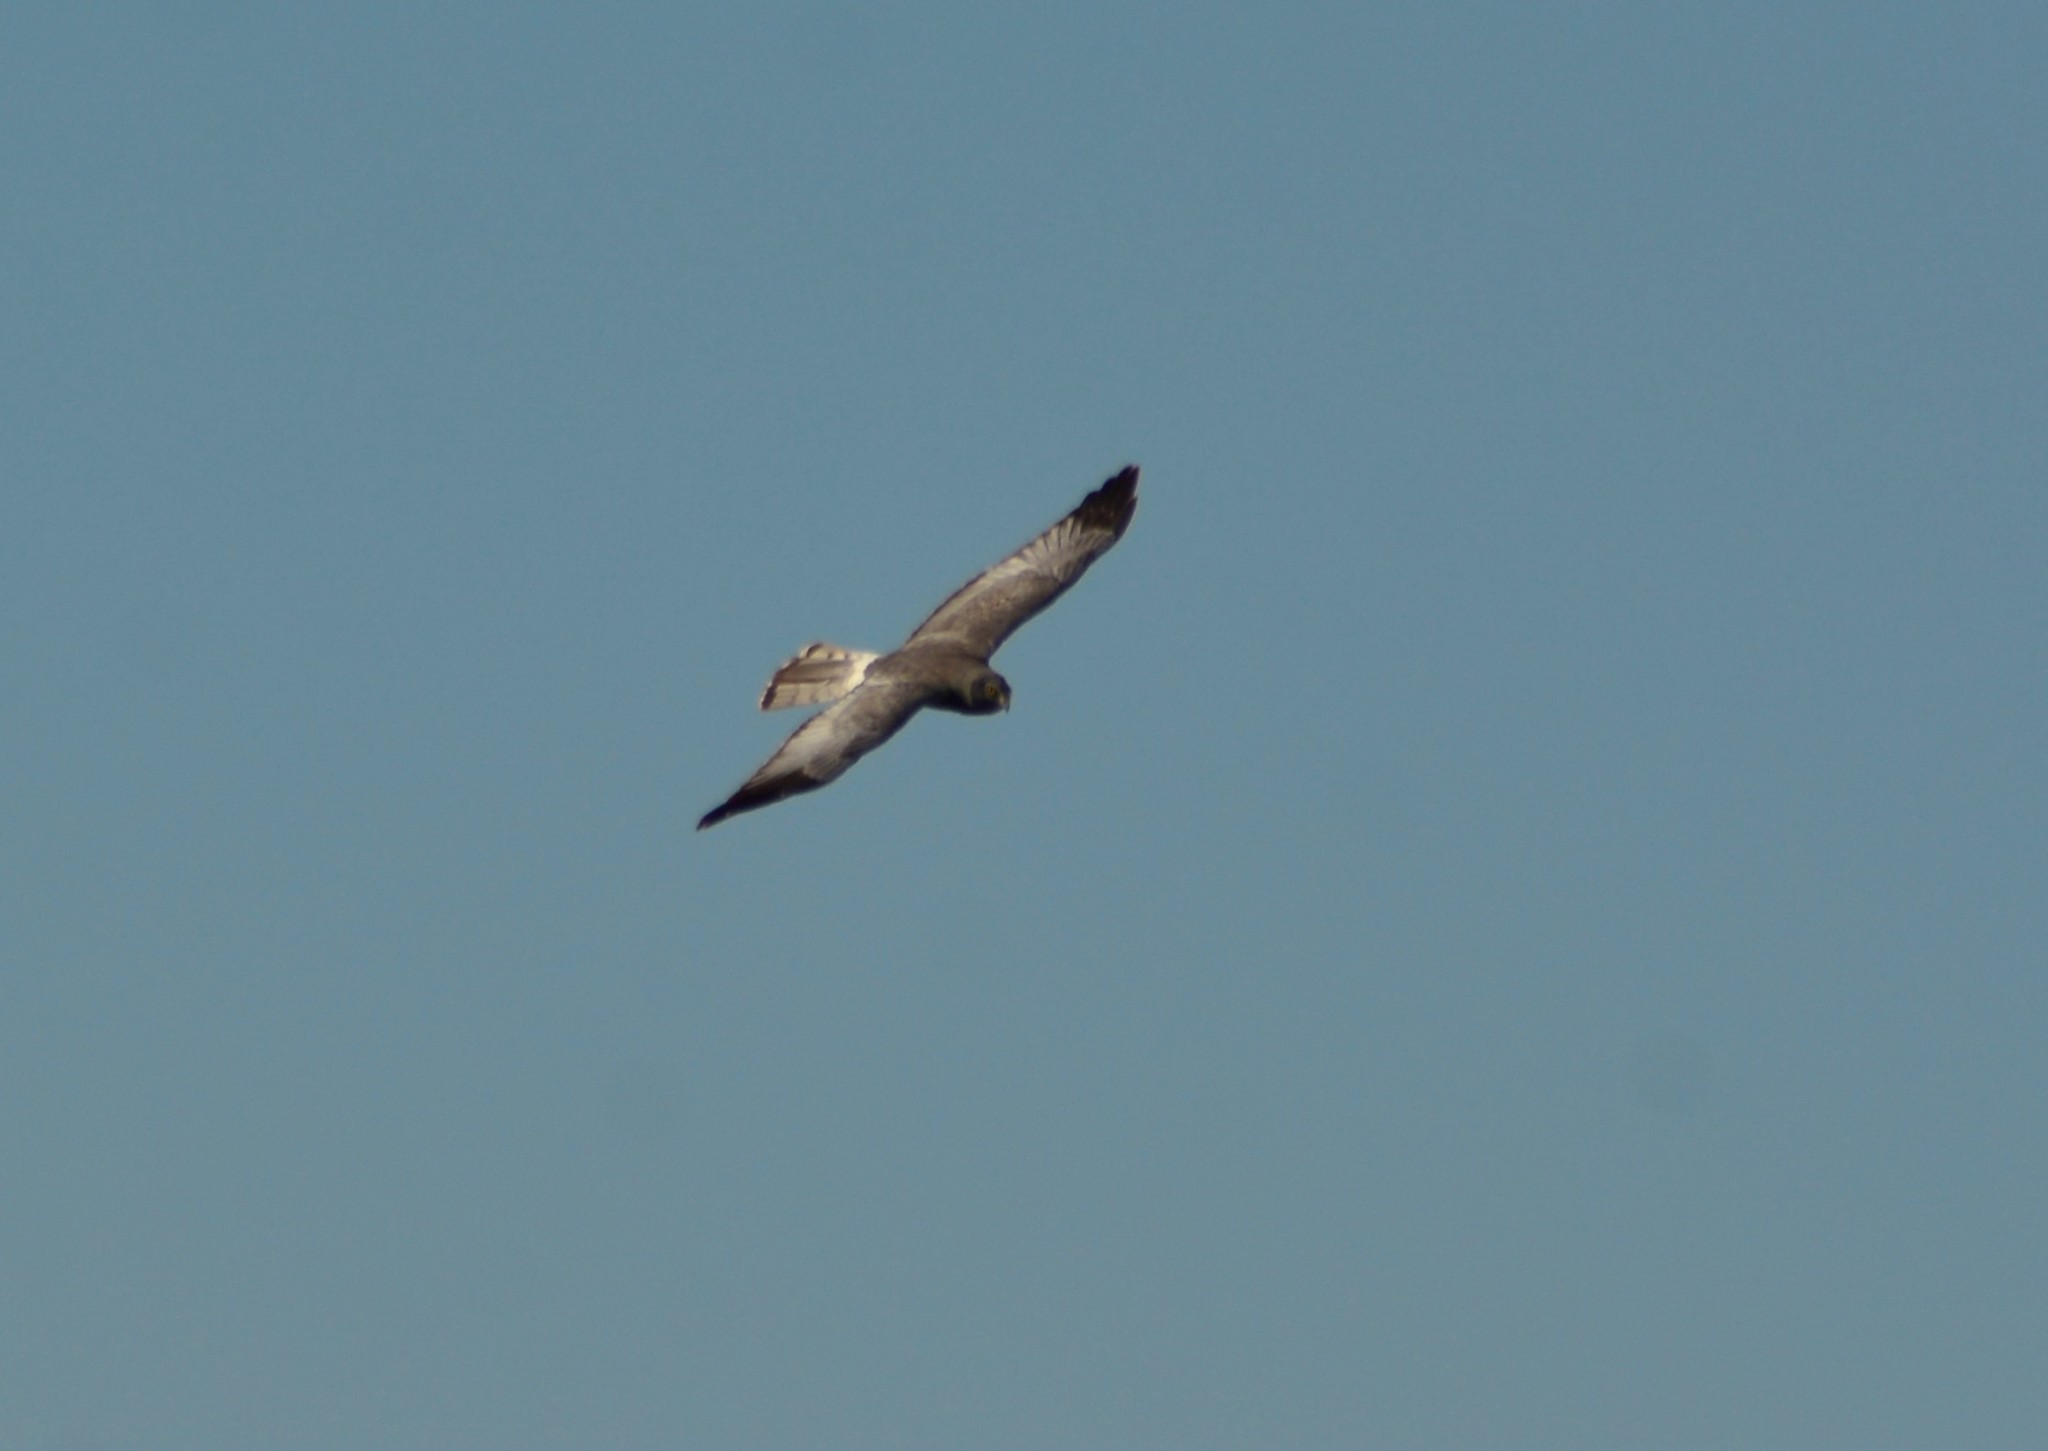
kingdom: Animalia
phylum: Chordata
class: Aves
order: Accipitriformes
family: Accipitridae
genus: Circus
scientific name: Circus cinereus
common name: Cinereous harrier
